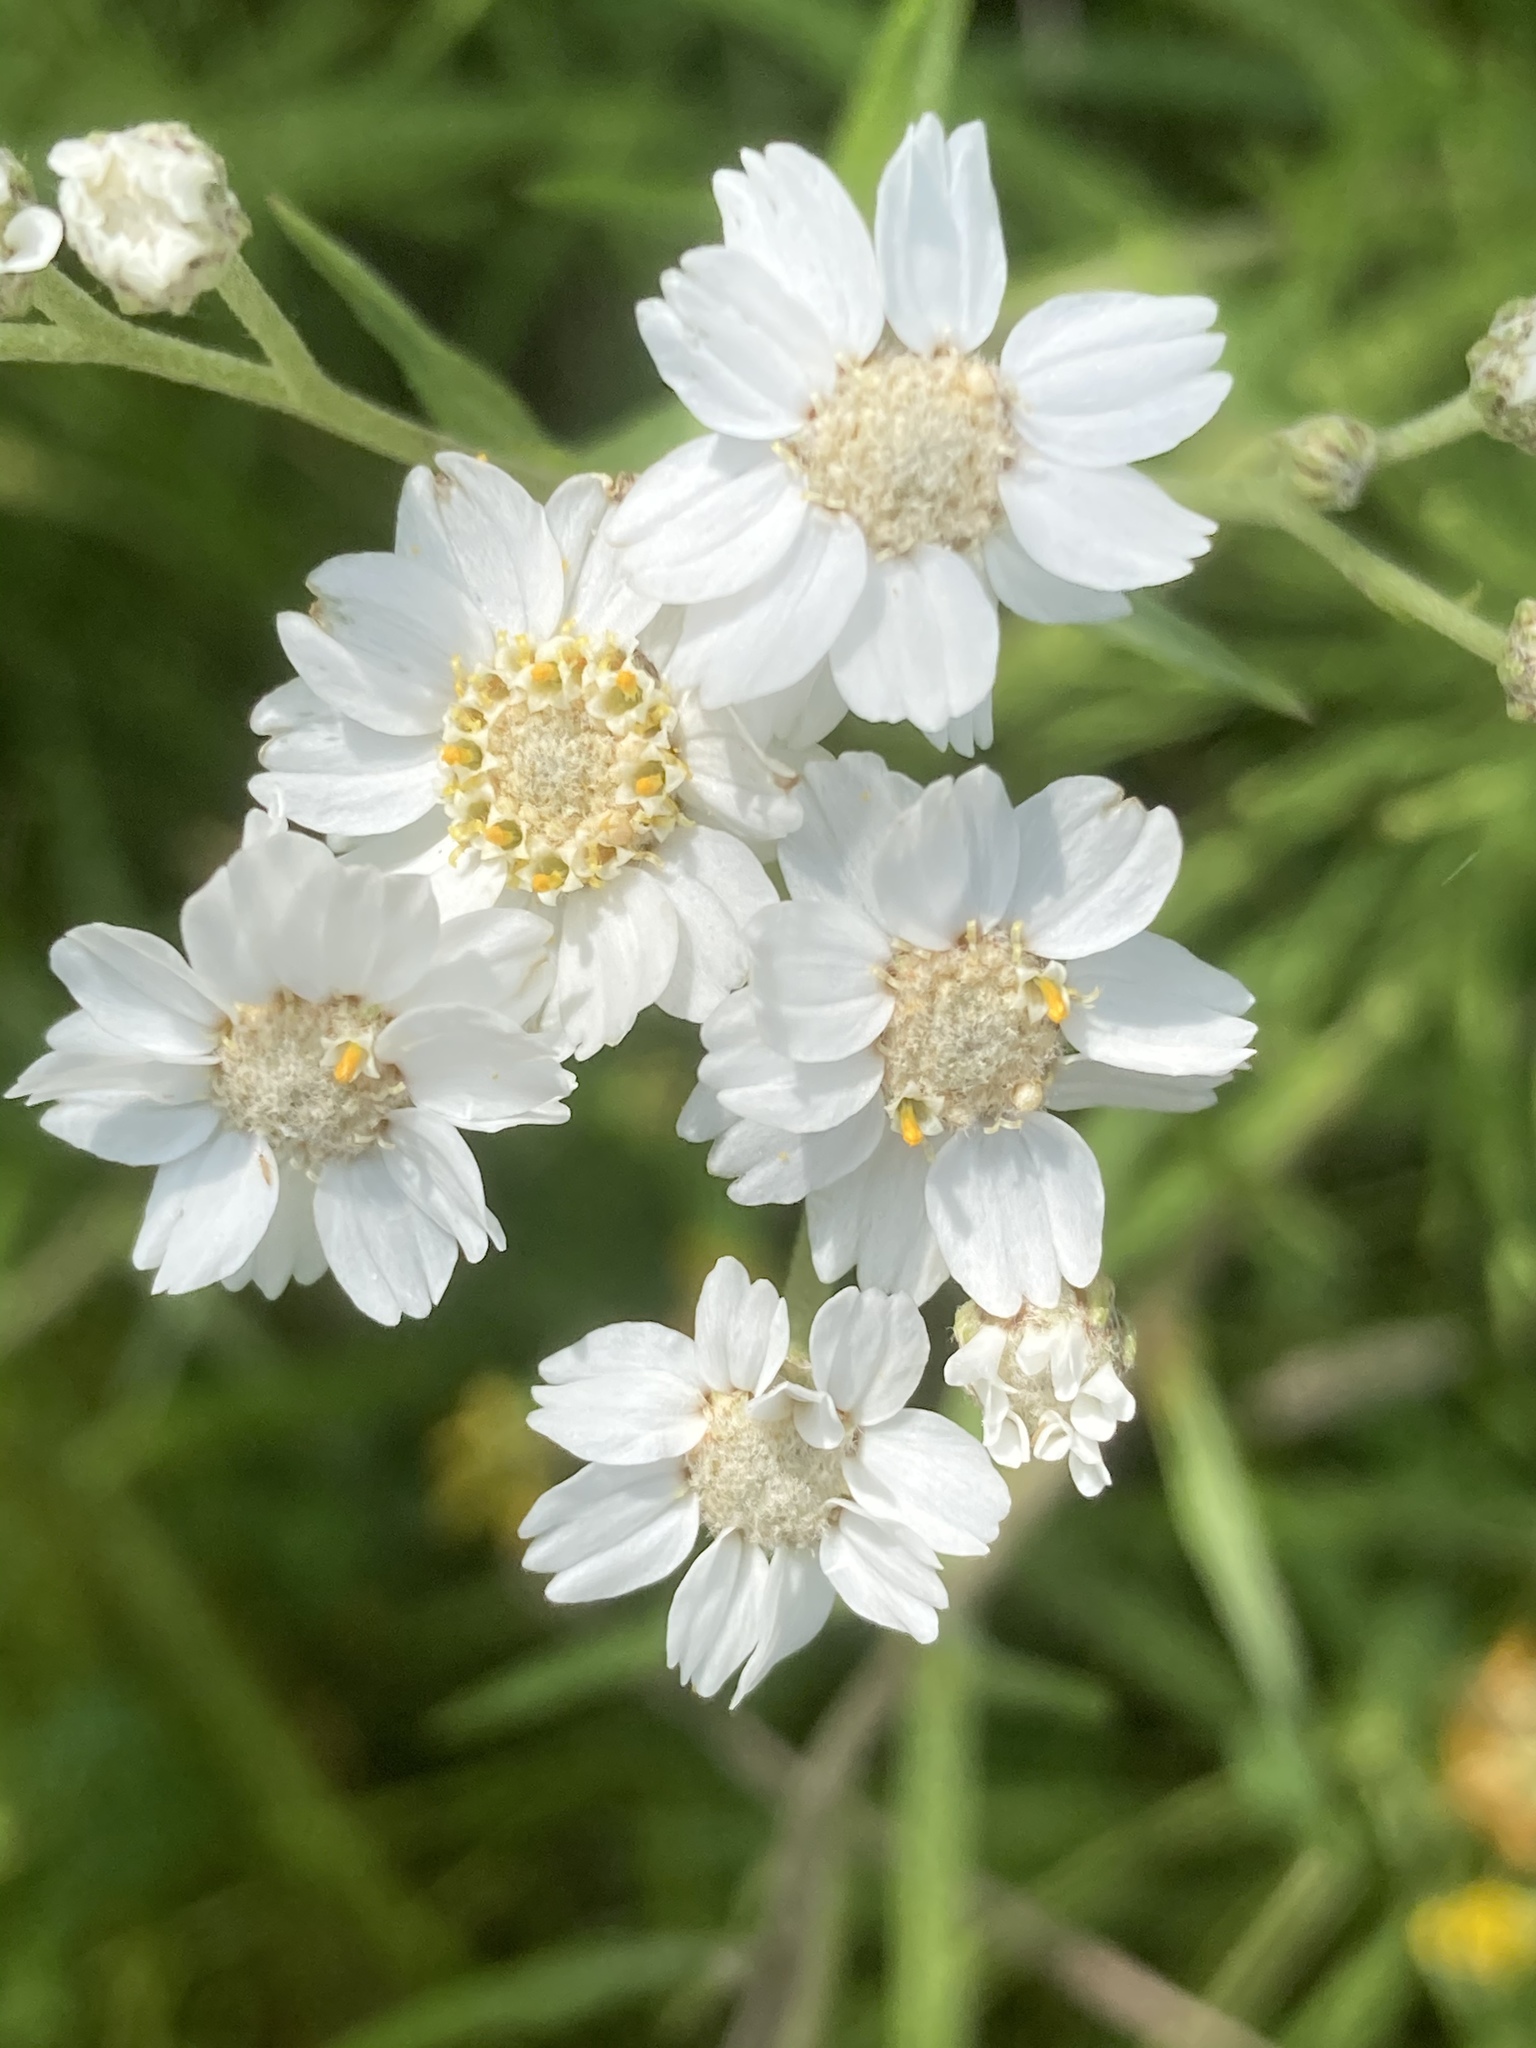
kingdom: Plantae
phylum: Tracheophyta
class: Magnoliopsida
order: Asterales
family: Asteraceae
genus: Achillea
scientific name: Achillea ptarmica
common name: Sneezeweed
